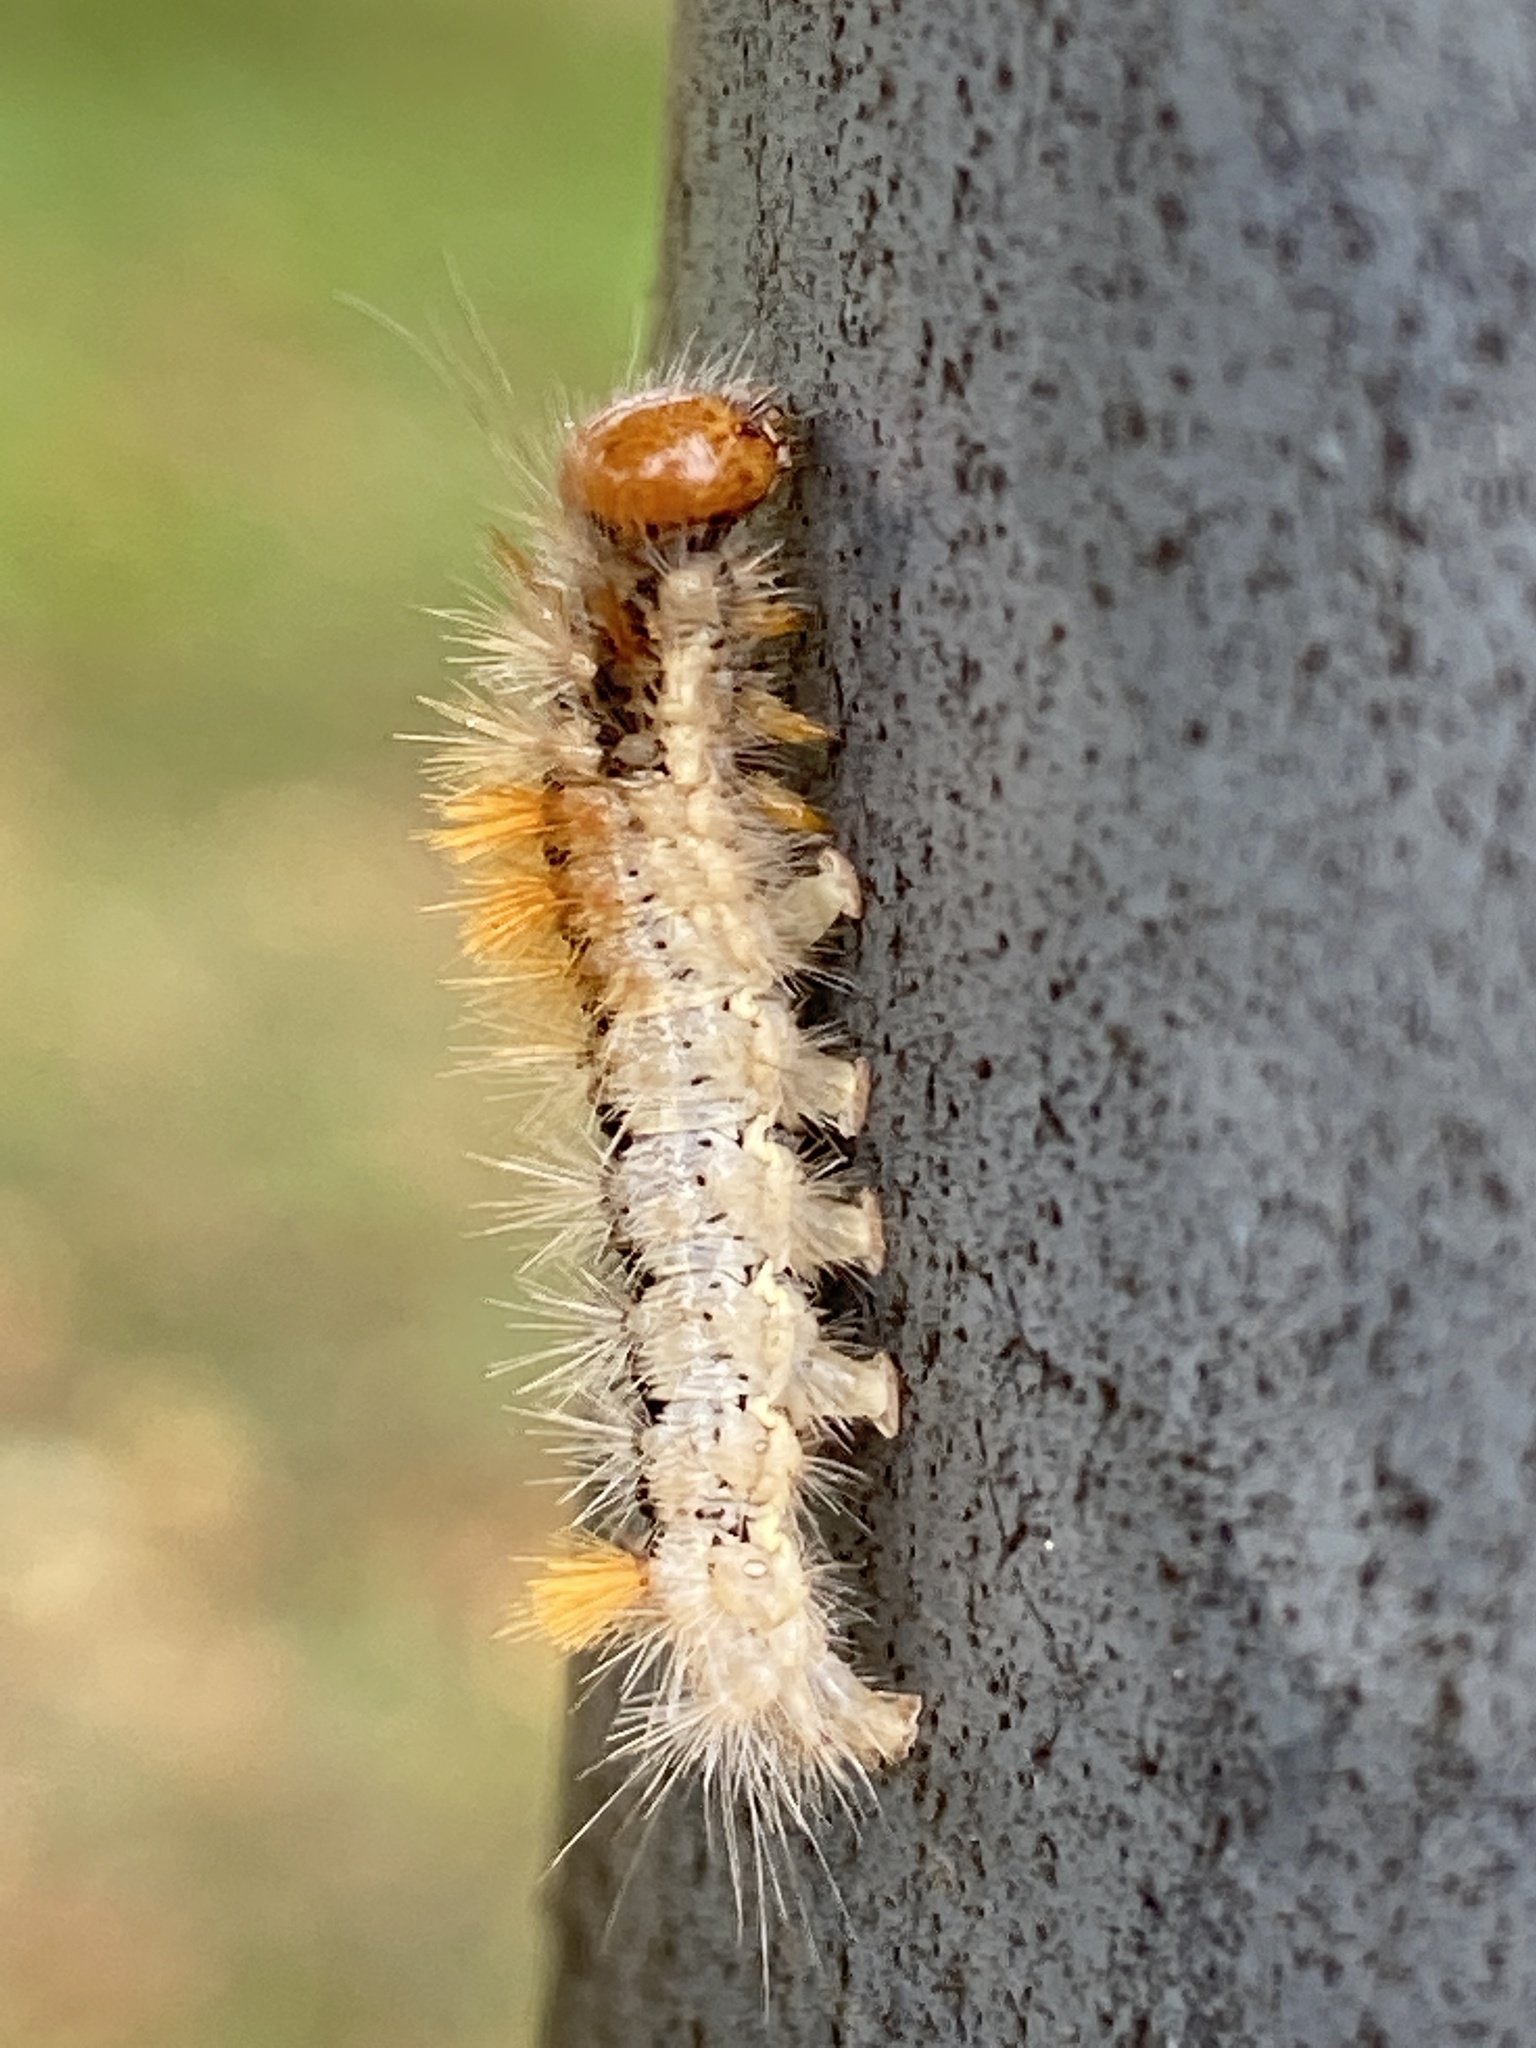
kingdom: Animalia
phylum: Arthropoda
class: Insecta
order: Lepidoptera
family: Noctuidae
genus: Colocasia
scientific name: Colocasia coryli
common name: Nut-tree tussock
